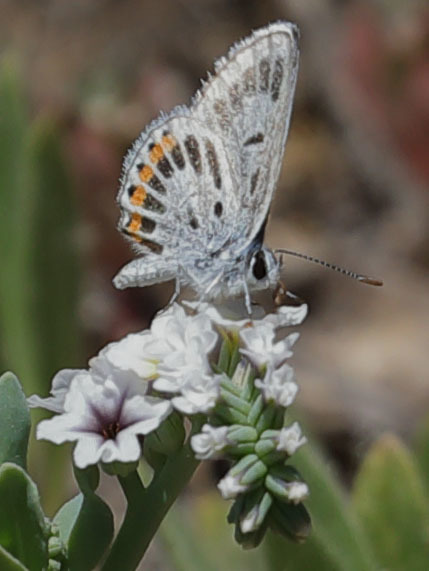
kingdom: Animalia
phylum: Arthropoda
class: Insecta
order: Lepidoptera
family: Lycaenidae
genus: Icaricia
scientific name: Icaricia acmon
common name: Acmon blue
